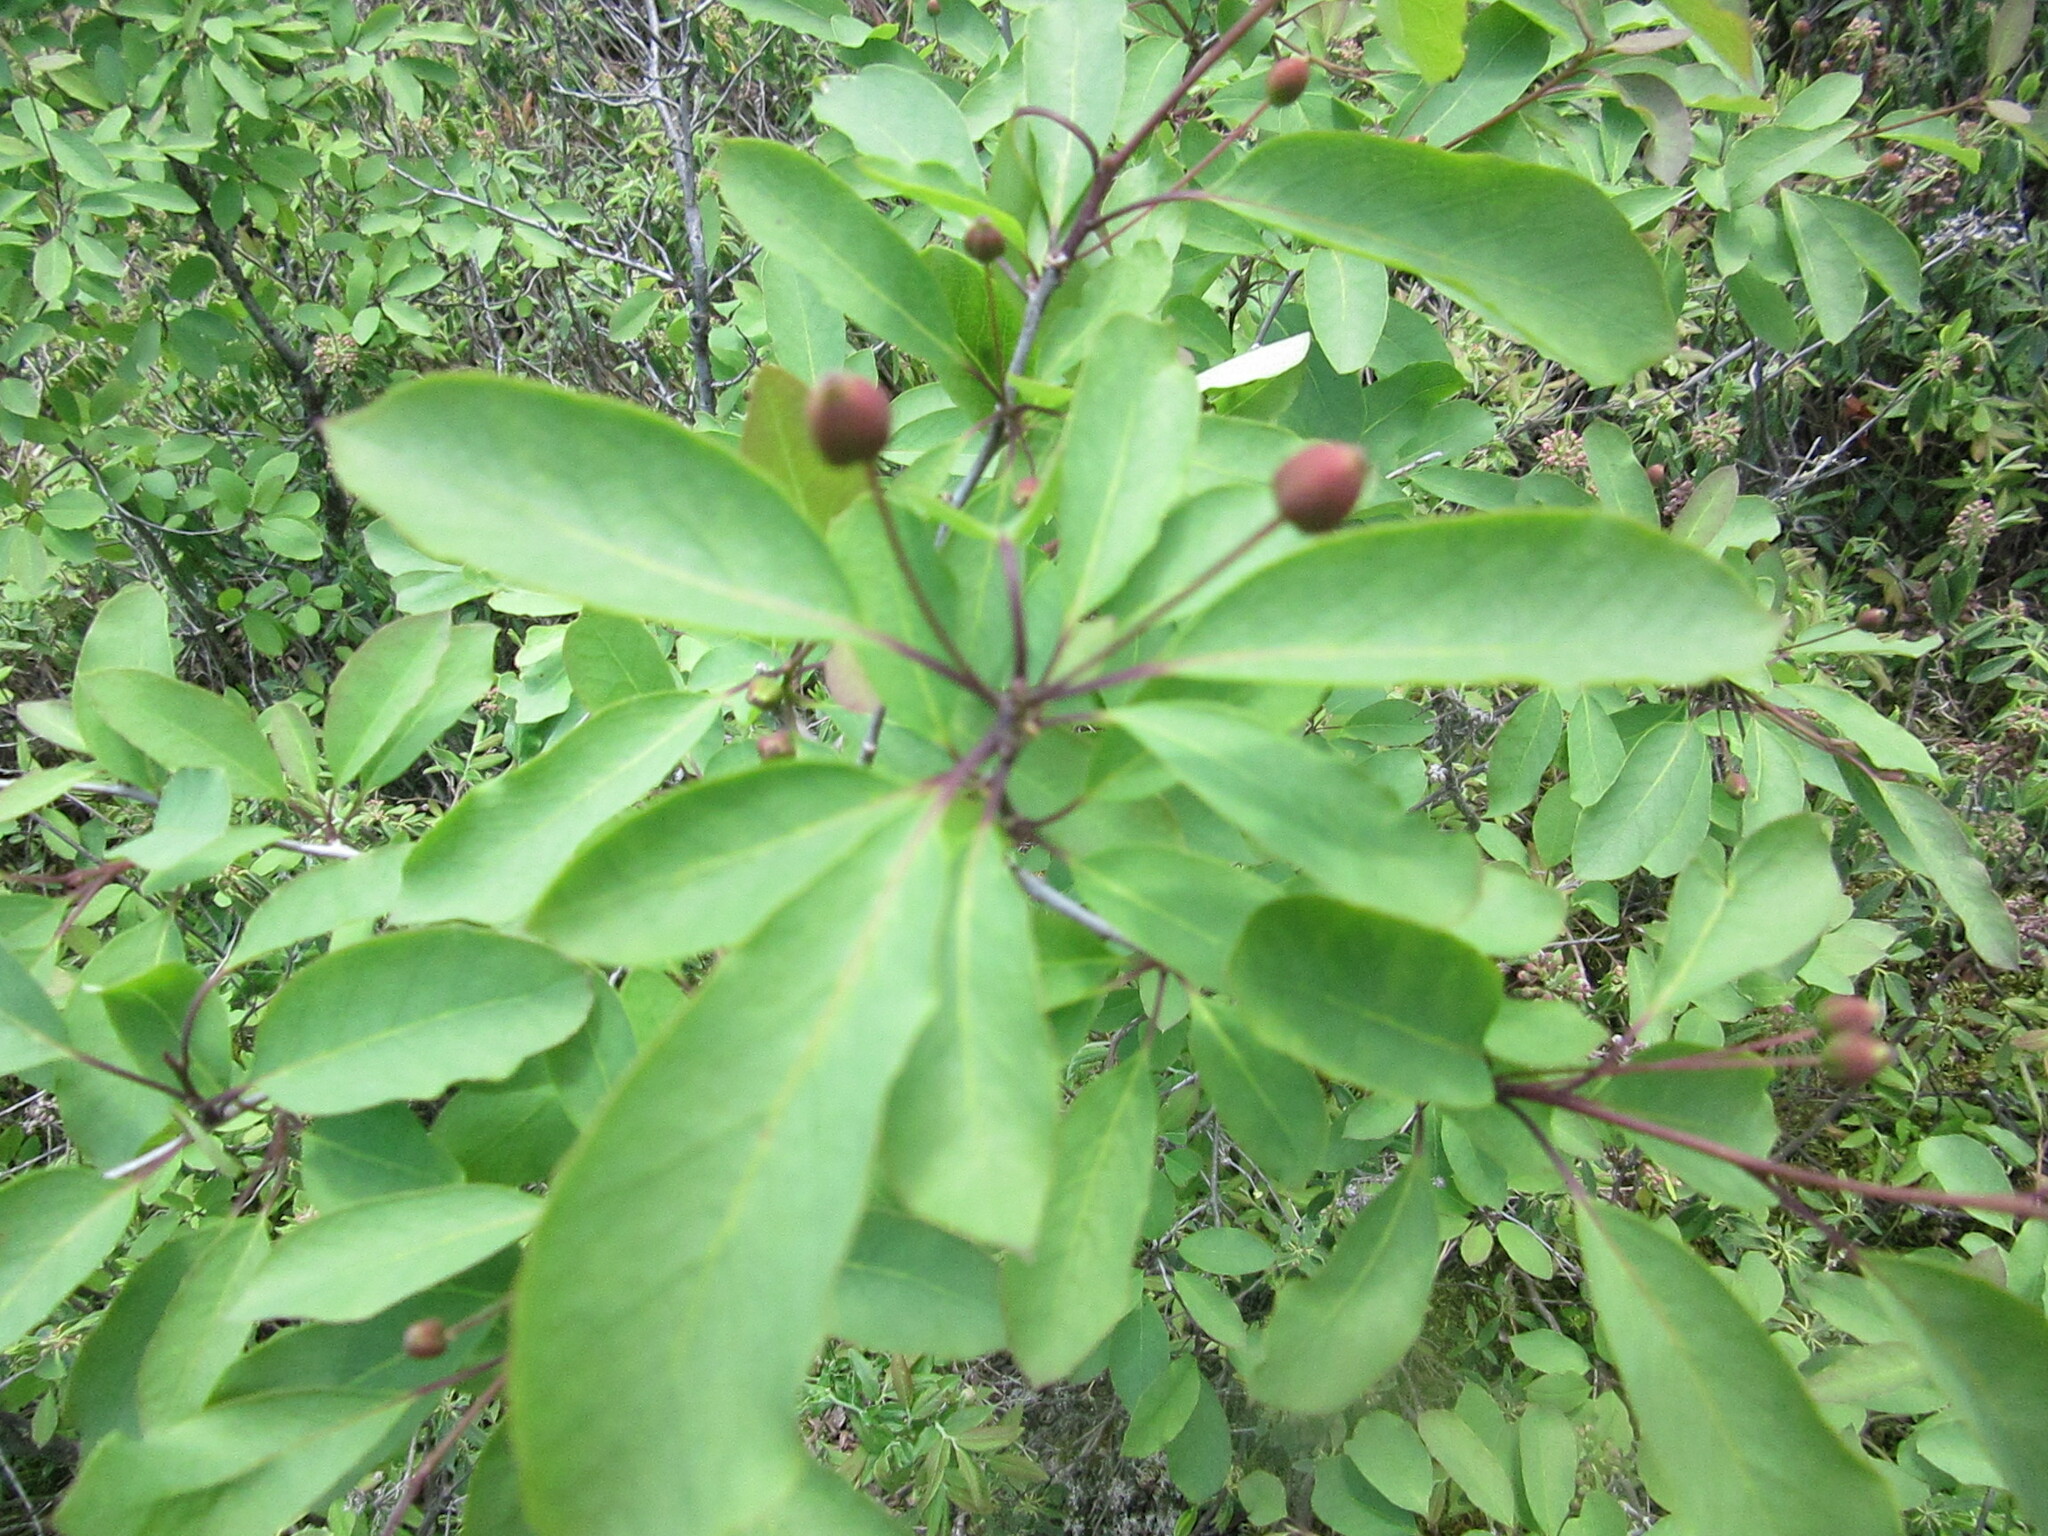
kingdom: Plantae
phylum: Tracheophyta
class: Magnoliopsida
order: Aquifoliales
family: Aquifoliaceae
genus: Ilex
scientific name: Ilex mucronata
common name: Catberry
